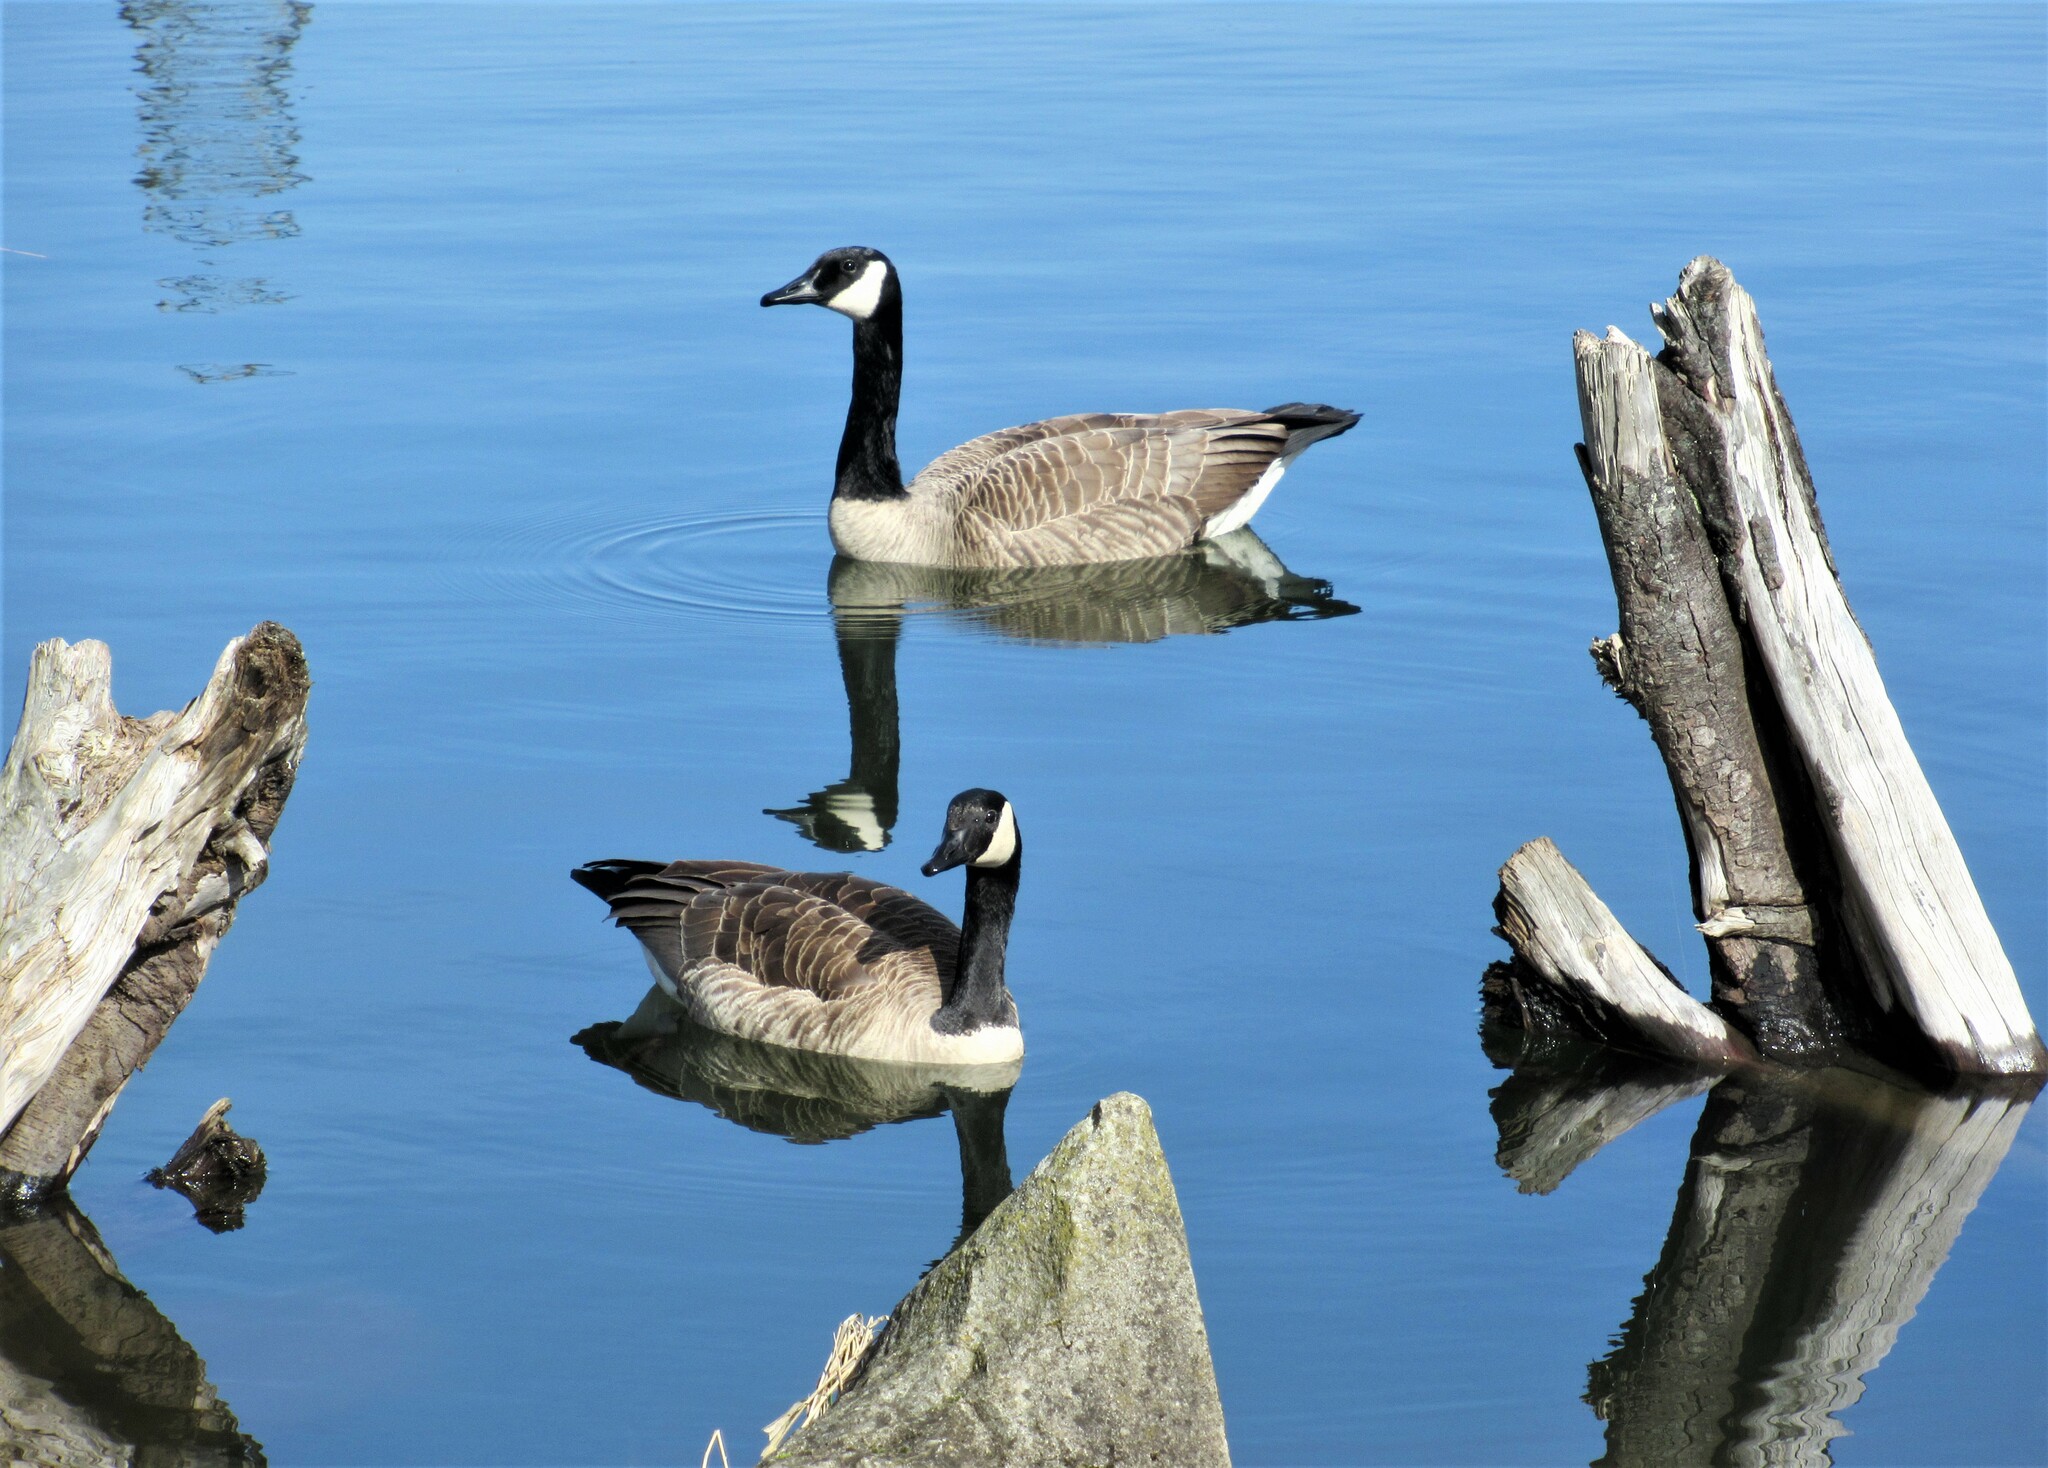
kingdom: Animalia
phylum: Chordata
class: Aves
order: Anseriformes
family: Anatidae
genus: Branta
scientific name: Branta canadensis
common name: Canada goose
